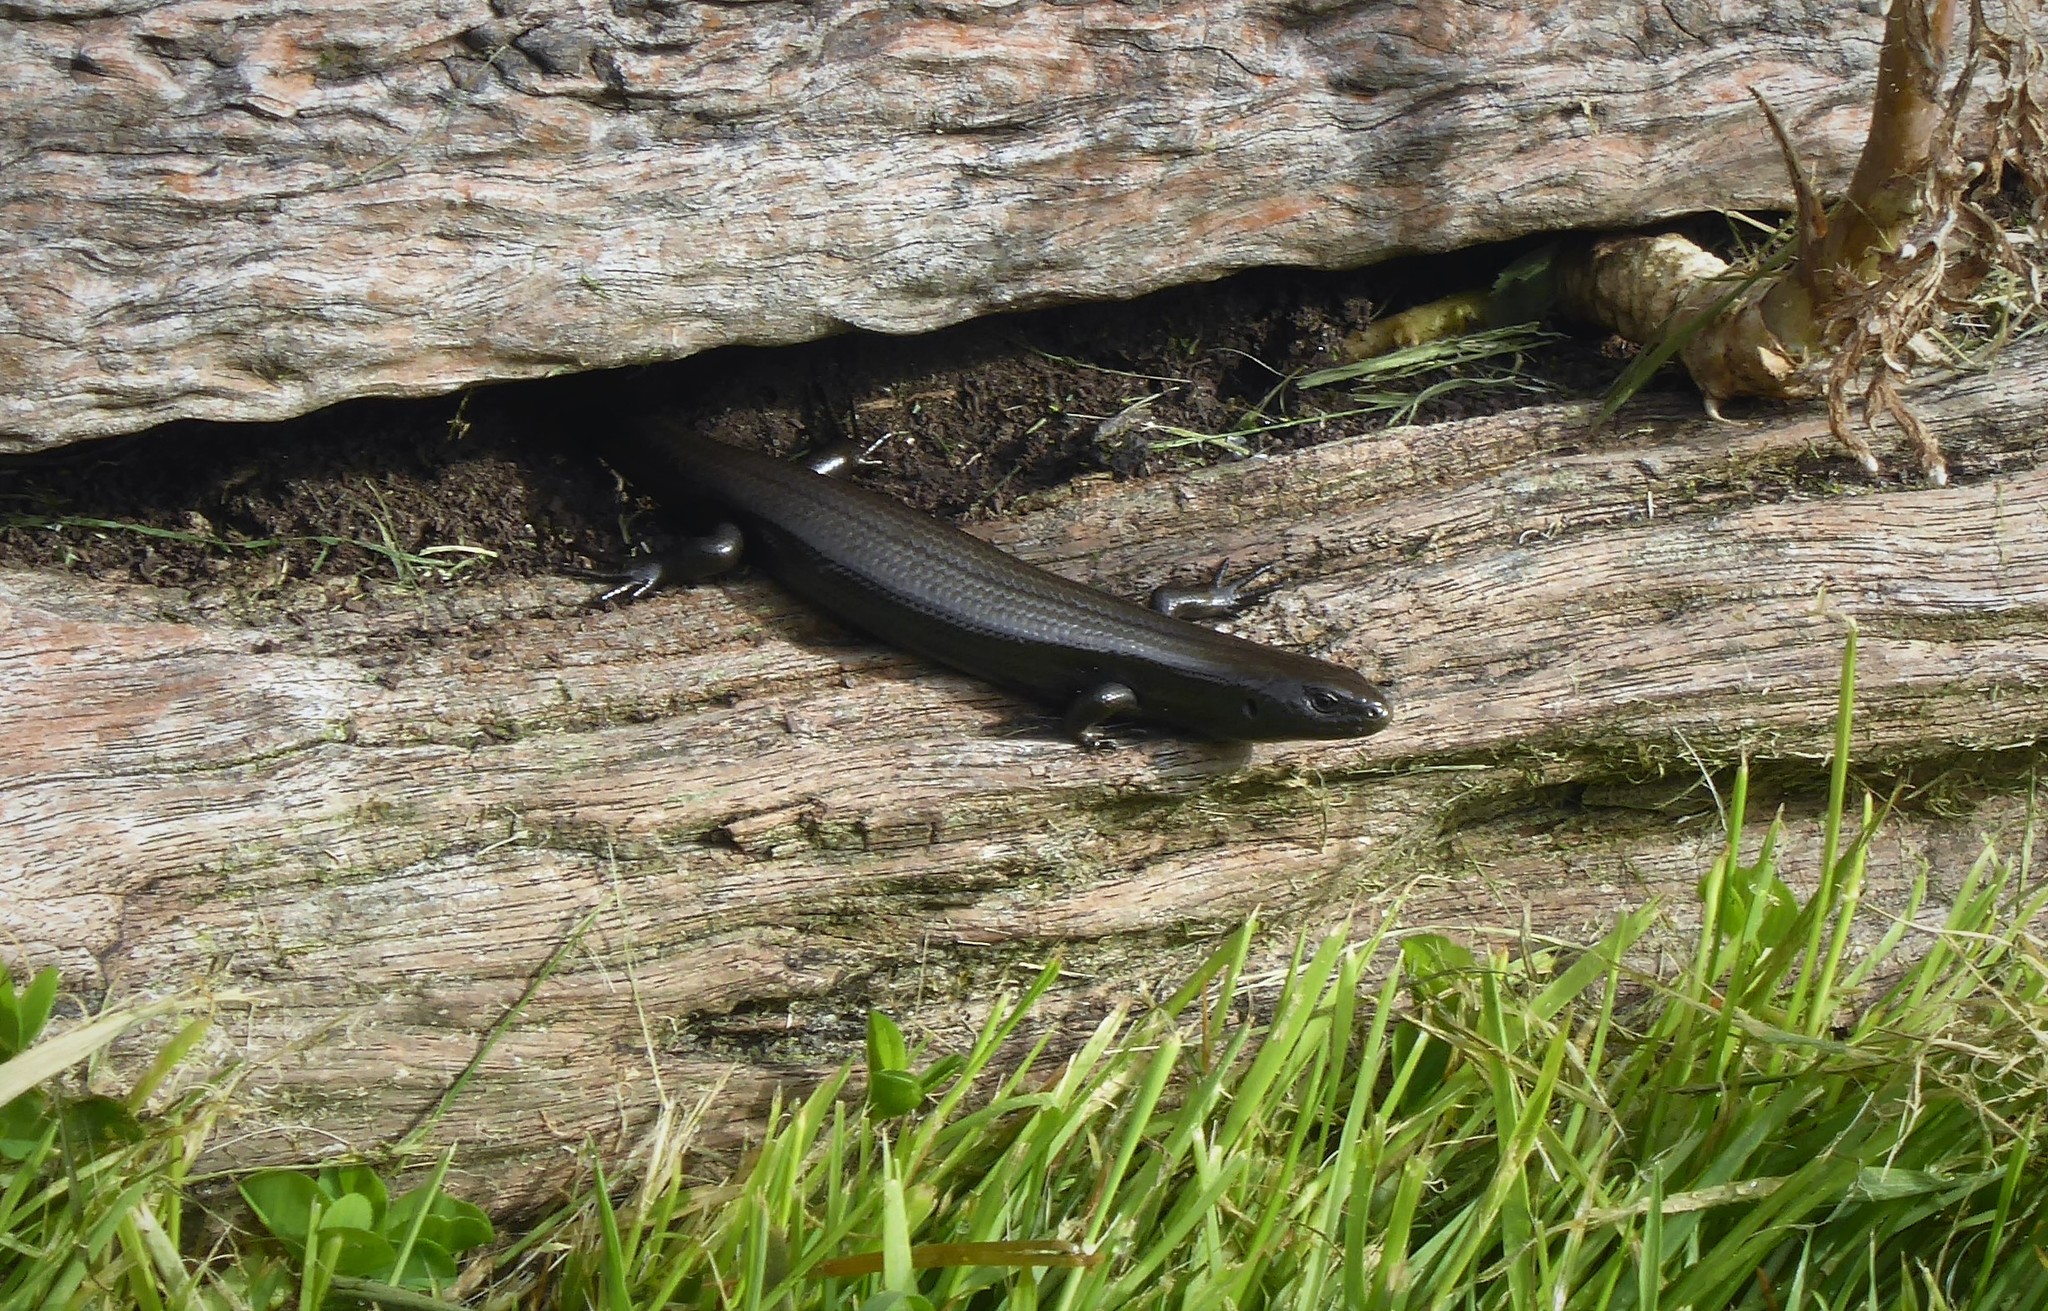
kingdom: Animalia
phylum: Chordata
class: Squamata
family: Scincidae
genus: Oligosoma
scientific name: Oligosoma polychroma
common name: Common new zealand skink
